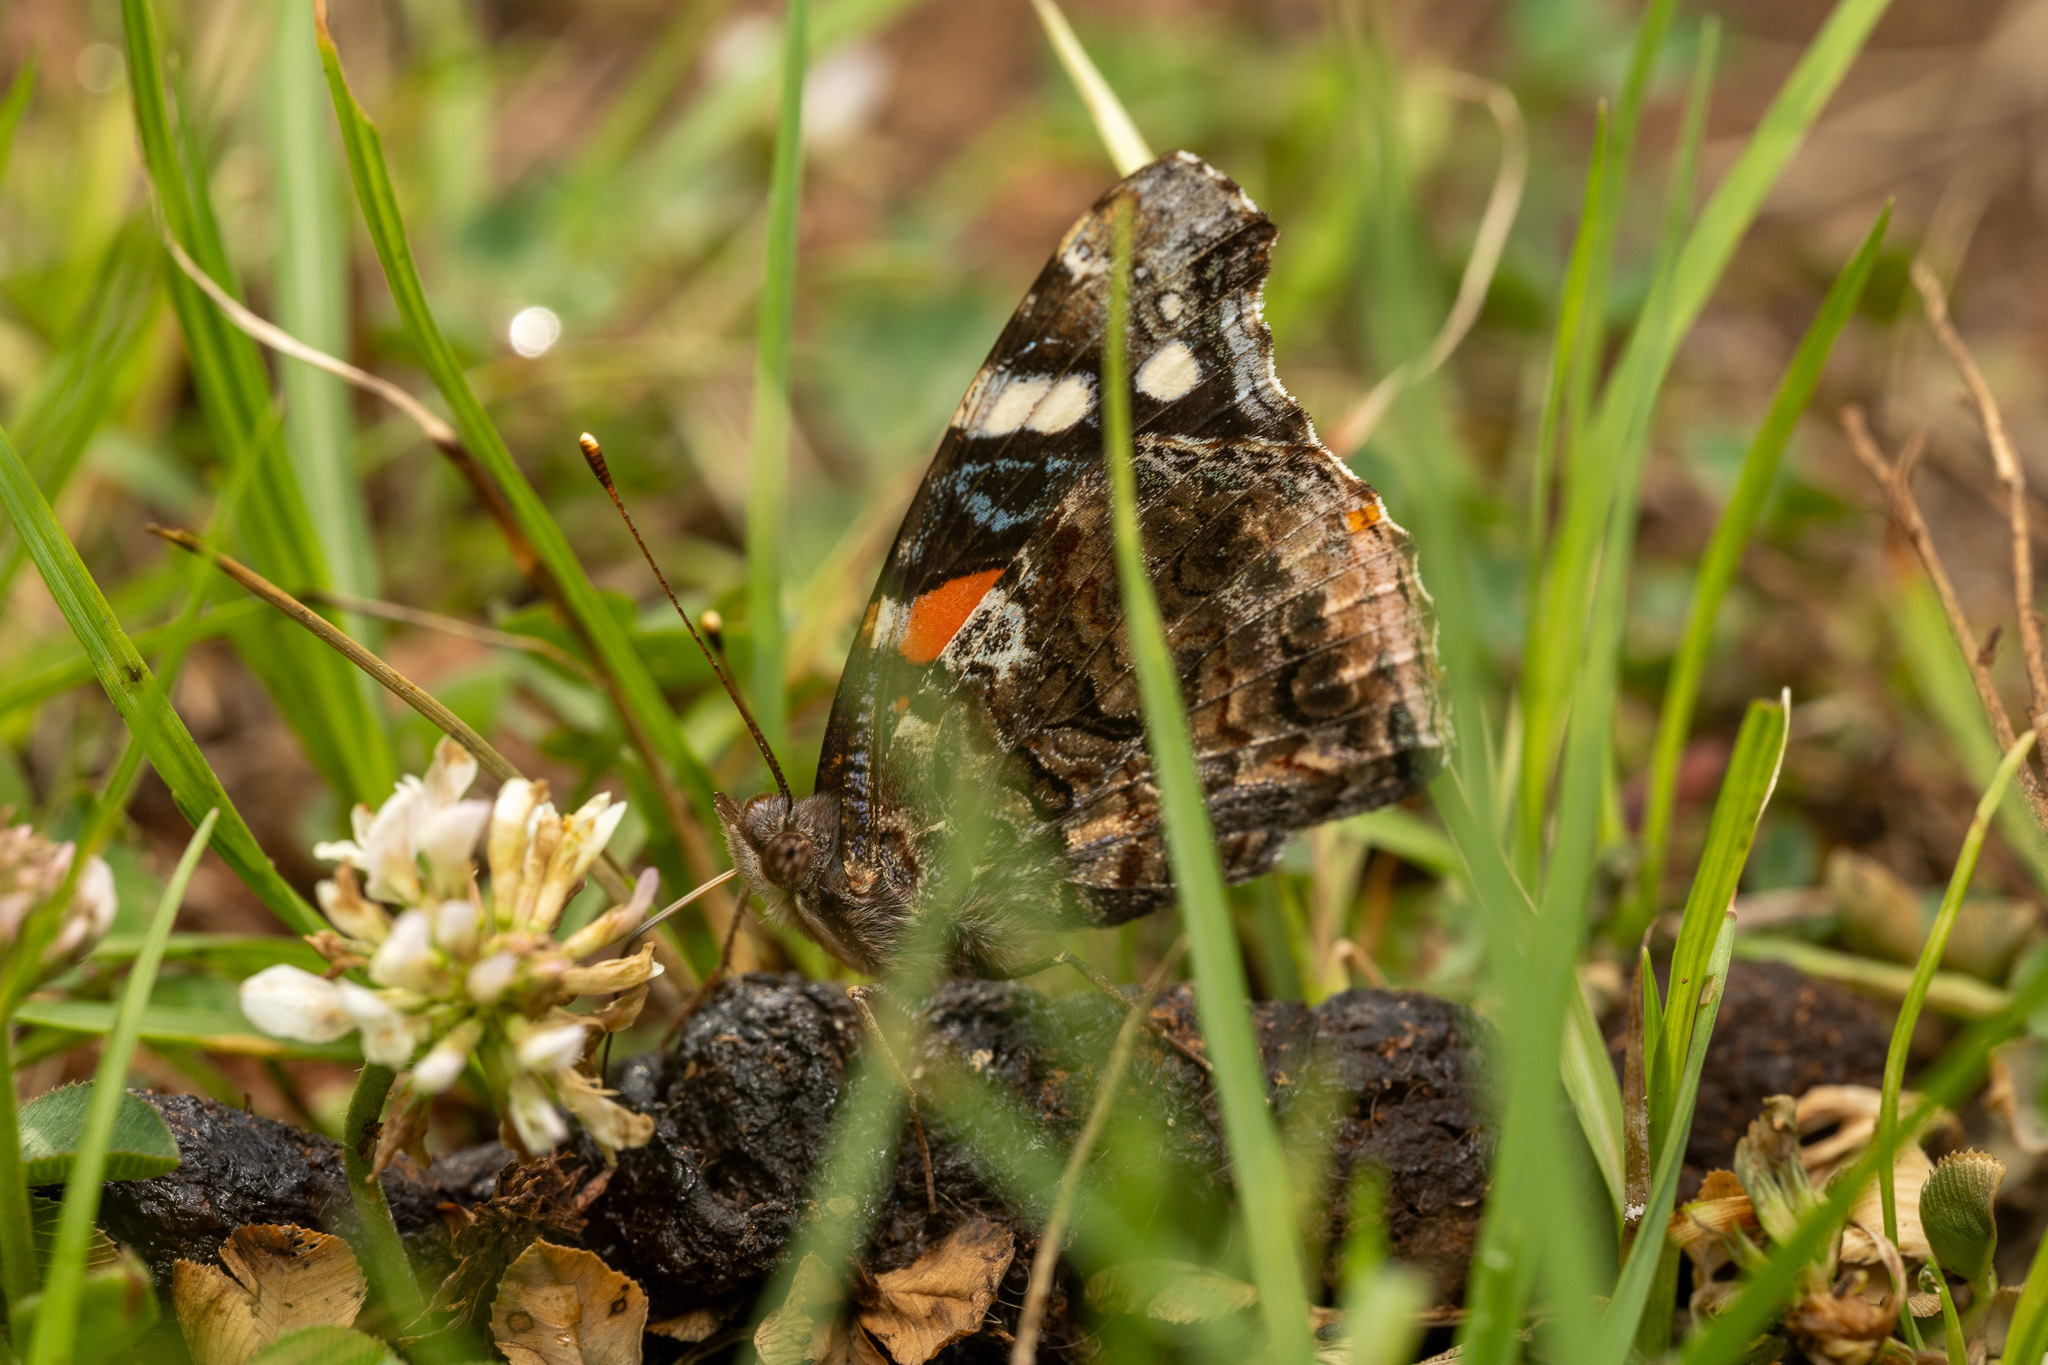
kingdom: Animalia
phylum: Arthropoda
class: Insecta
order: Lepidoptera
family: Nymphalidae
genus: Vanessa
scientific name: Vanessa atalanta
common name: Red admiral
